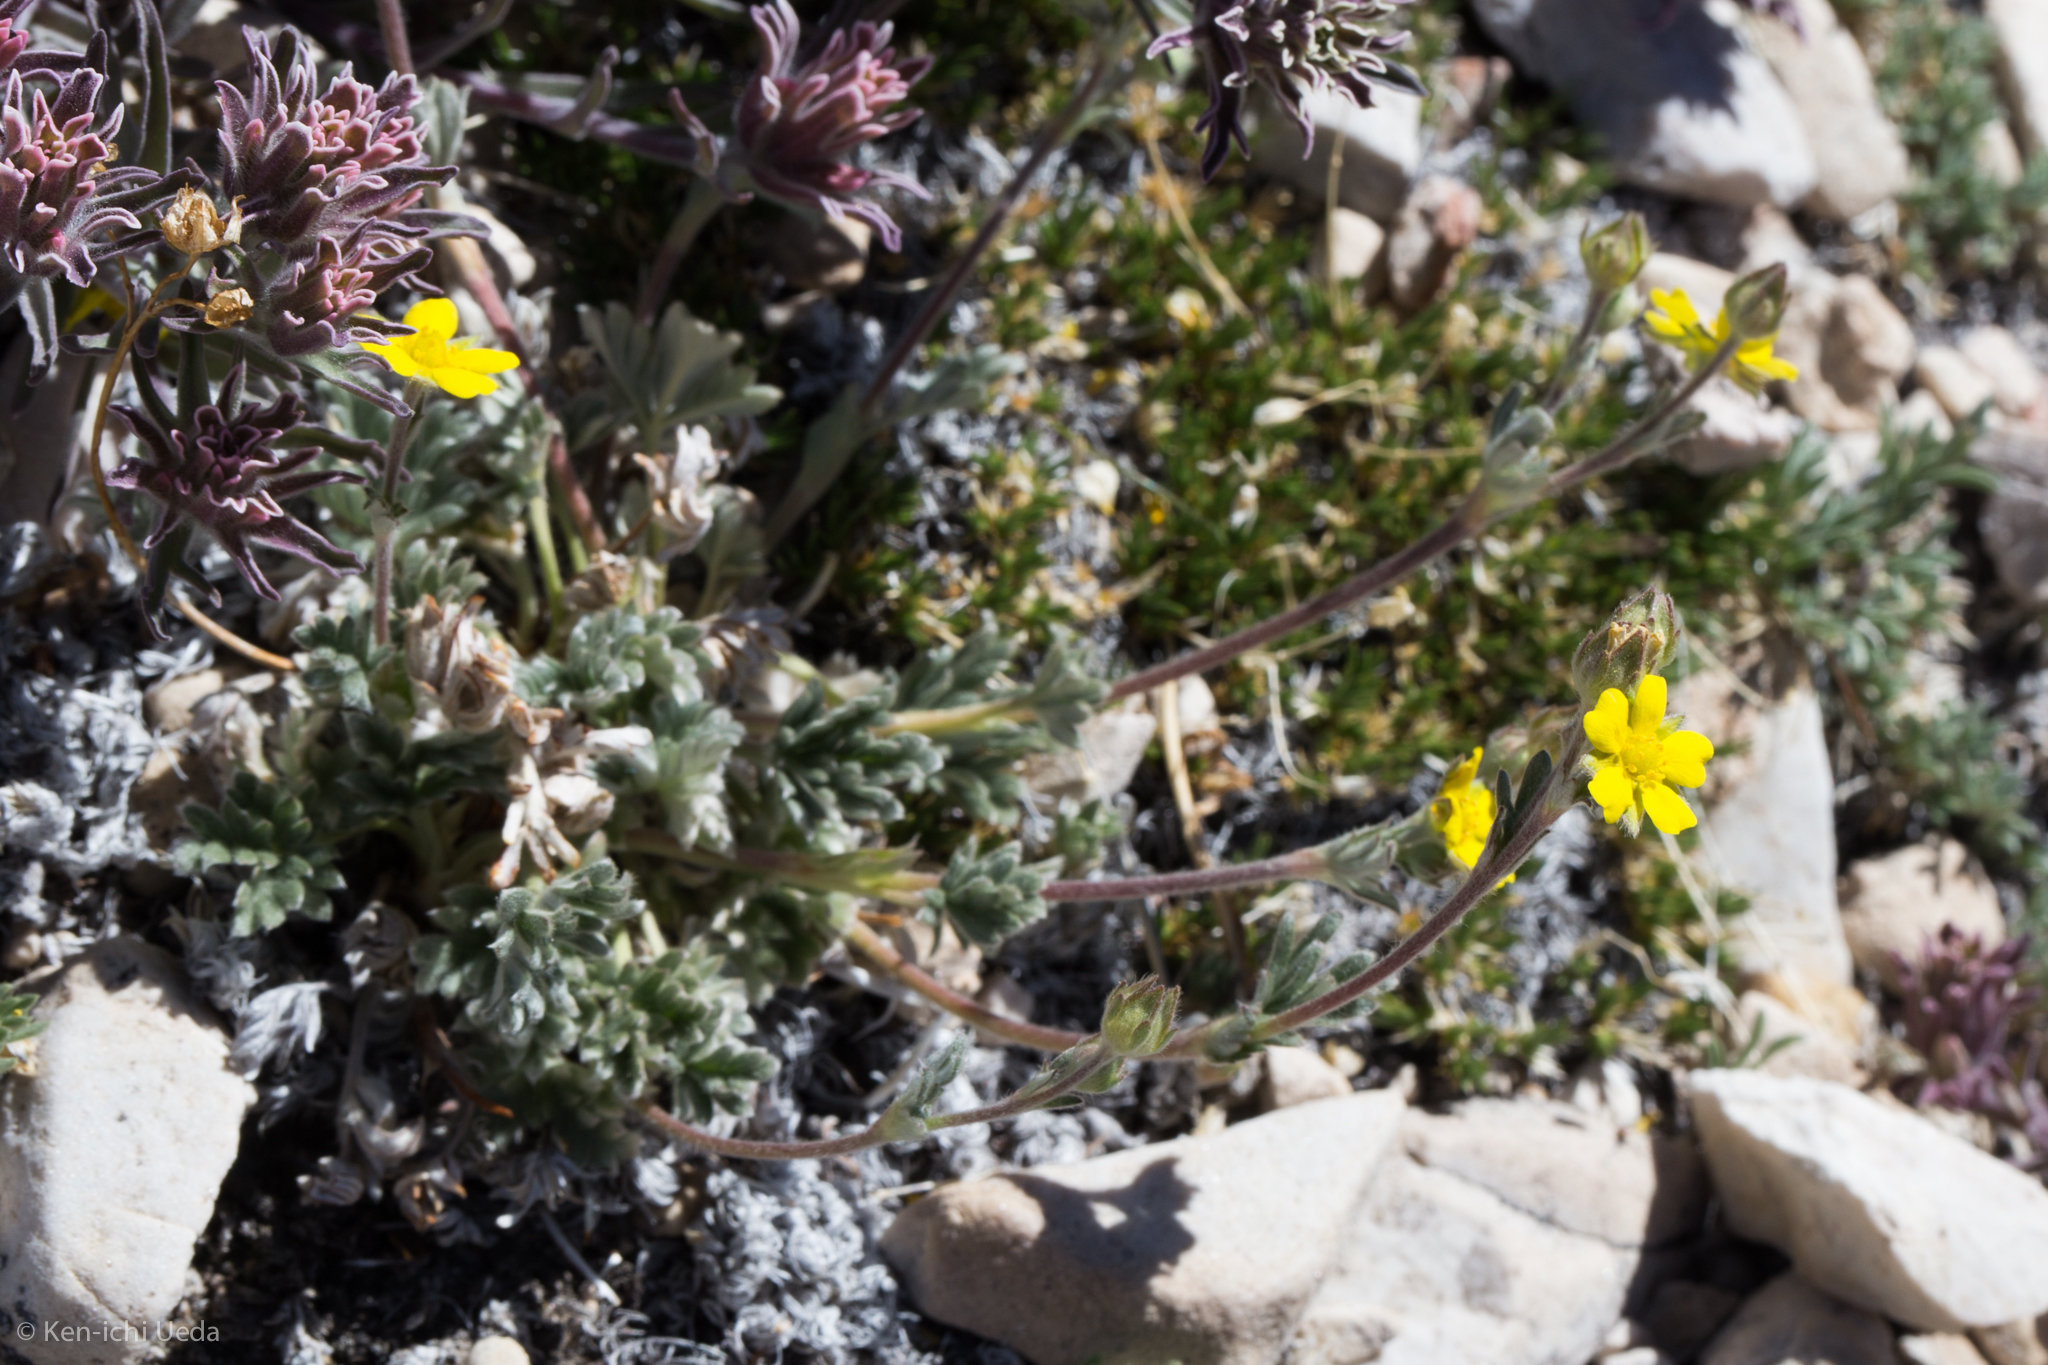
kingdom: Plantae
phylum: Tracheophyta
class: Magnoliopsida
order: Rosales
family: Rosaceae
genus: Potentilla
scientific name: Potentilla pseudosericea
